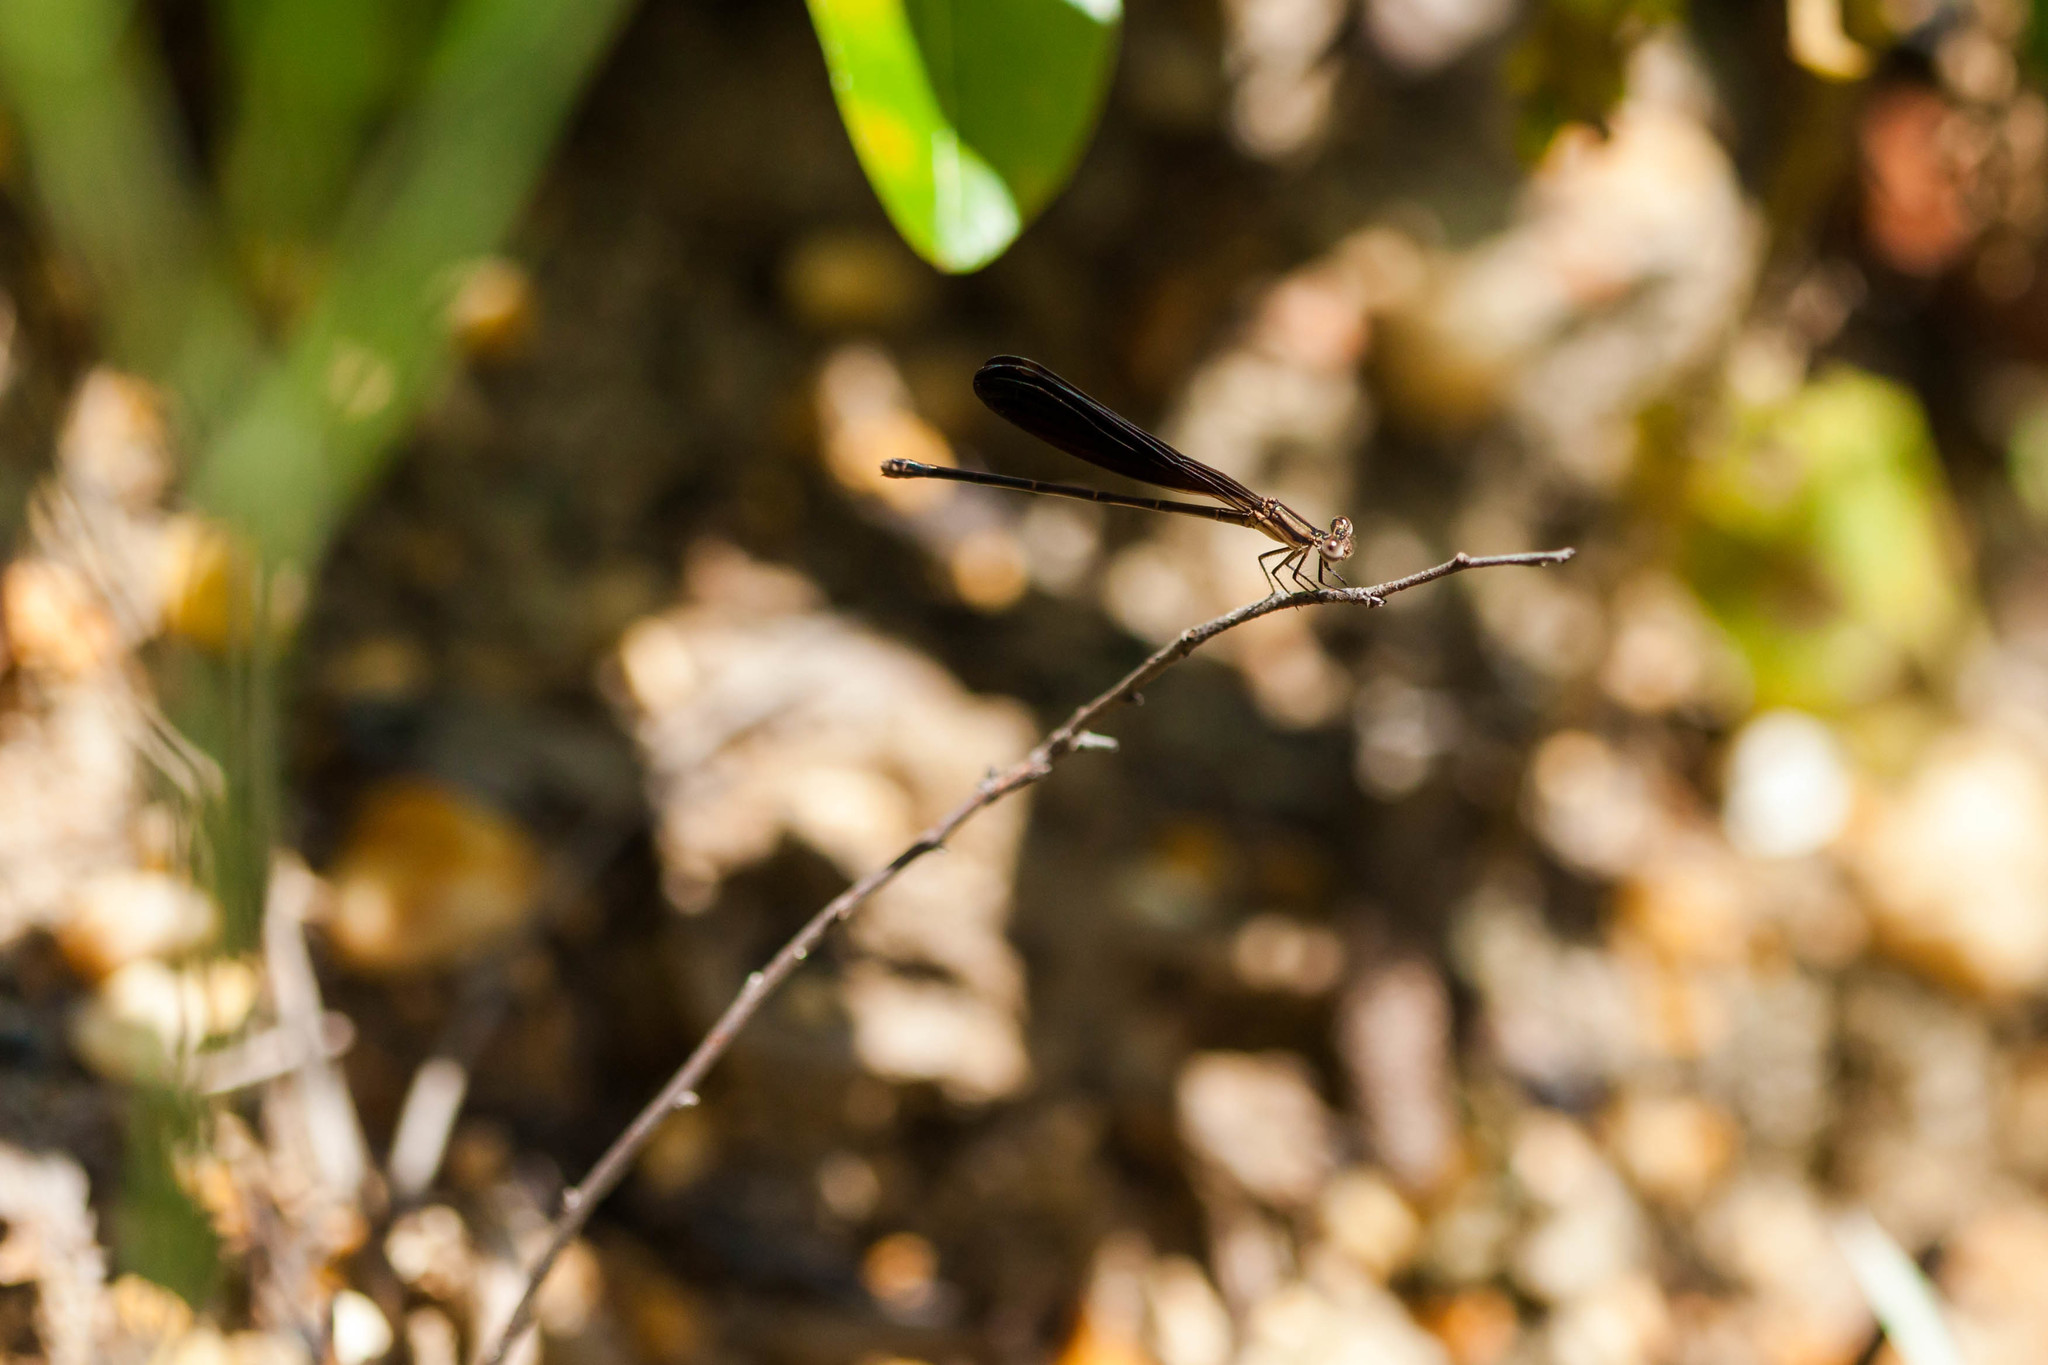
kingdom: Animalia
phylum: Arthropoda
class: Insecta
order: Odonata
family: Coenagrionidae
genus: Argia
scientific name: Argia fumipennis
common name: Variable dancer
